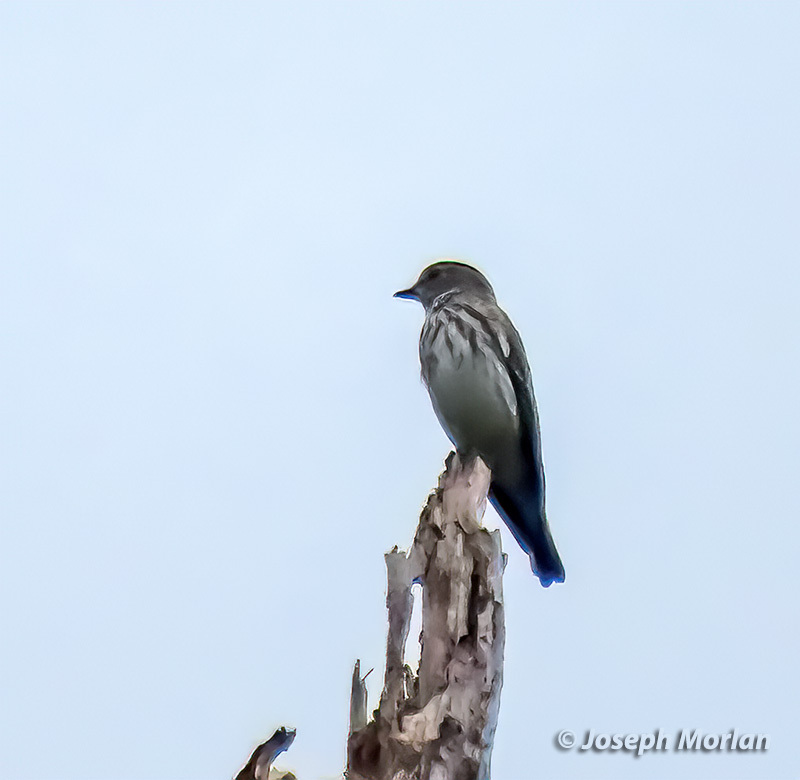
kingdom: Animalia
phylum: Chordata
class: Aves
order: Passeriformes
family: Muscicapidae
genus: Muscicapa
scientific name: Muscicapa griseisticta
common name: Gray-streaked flycatcher
